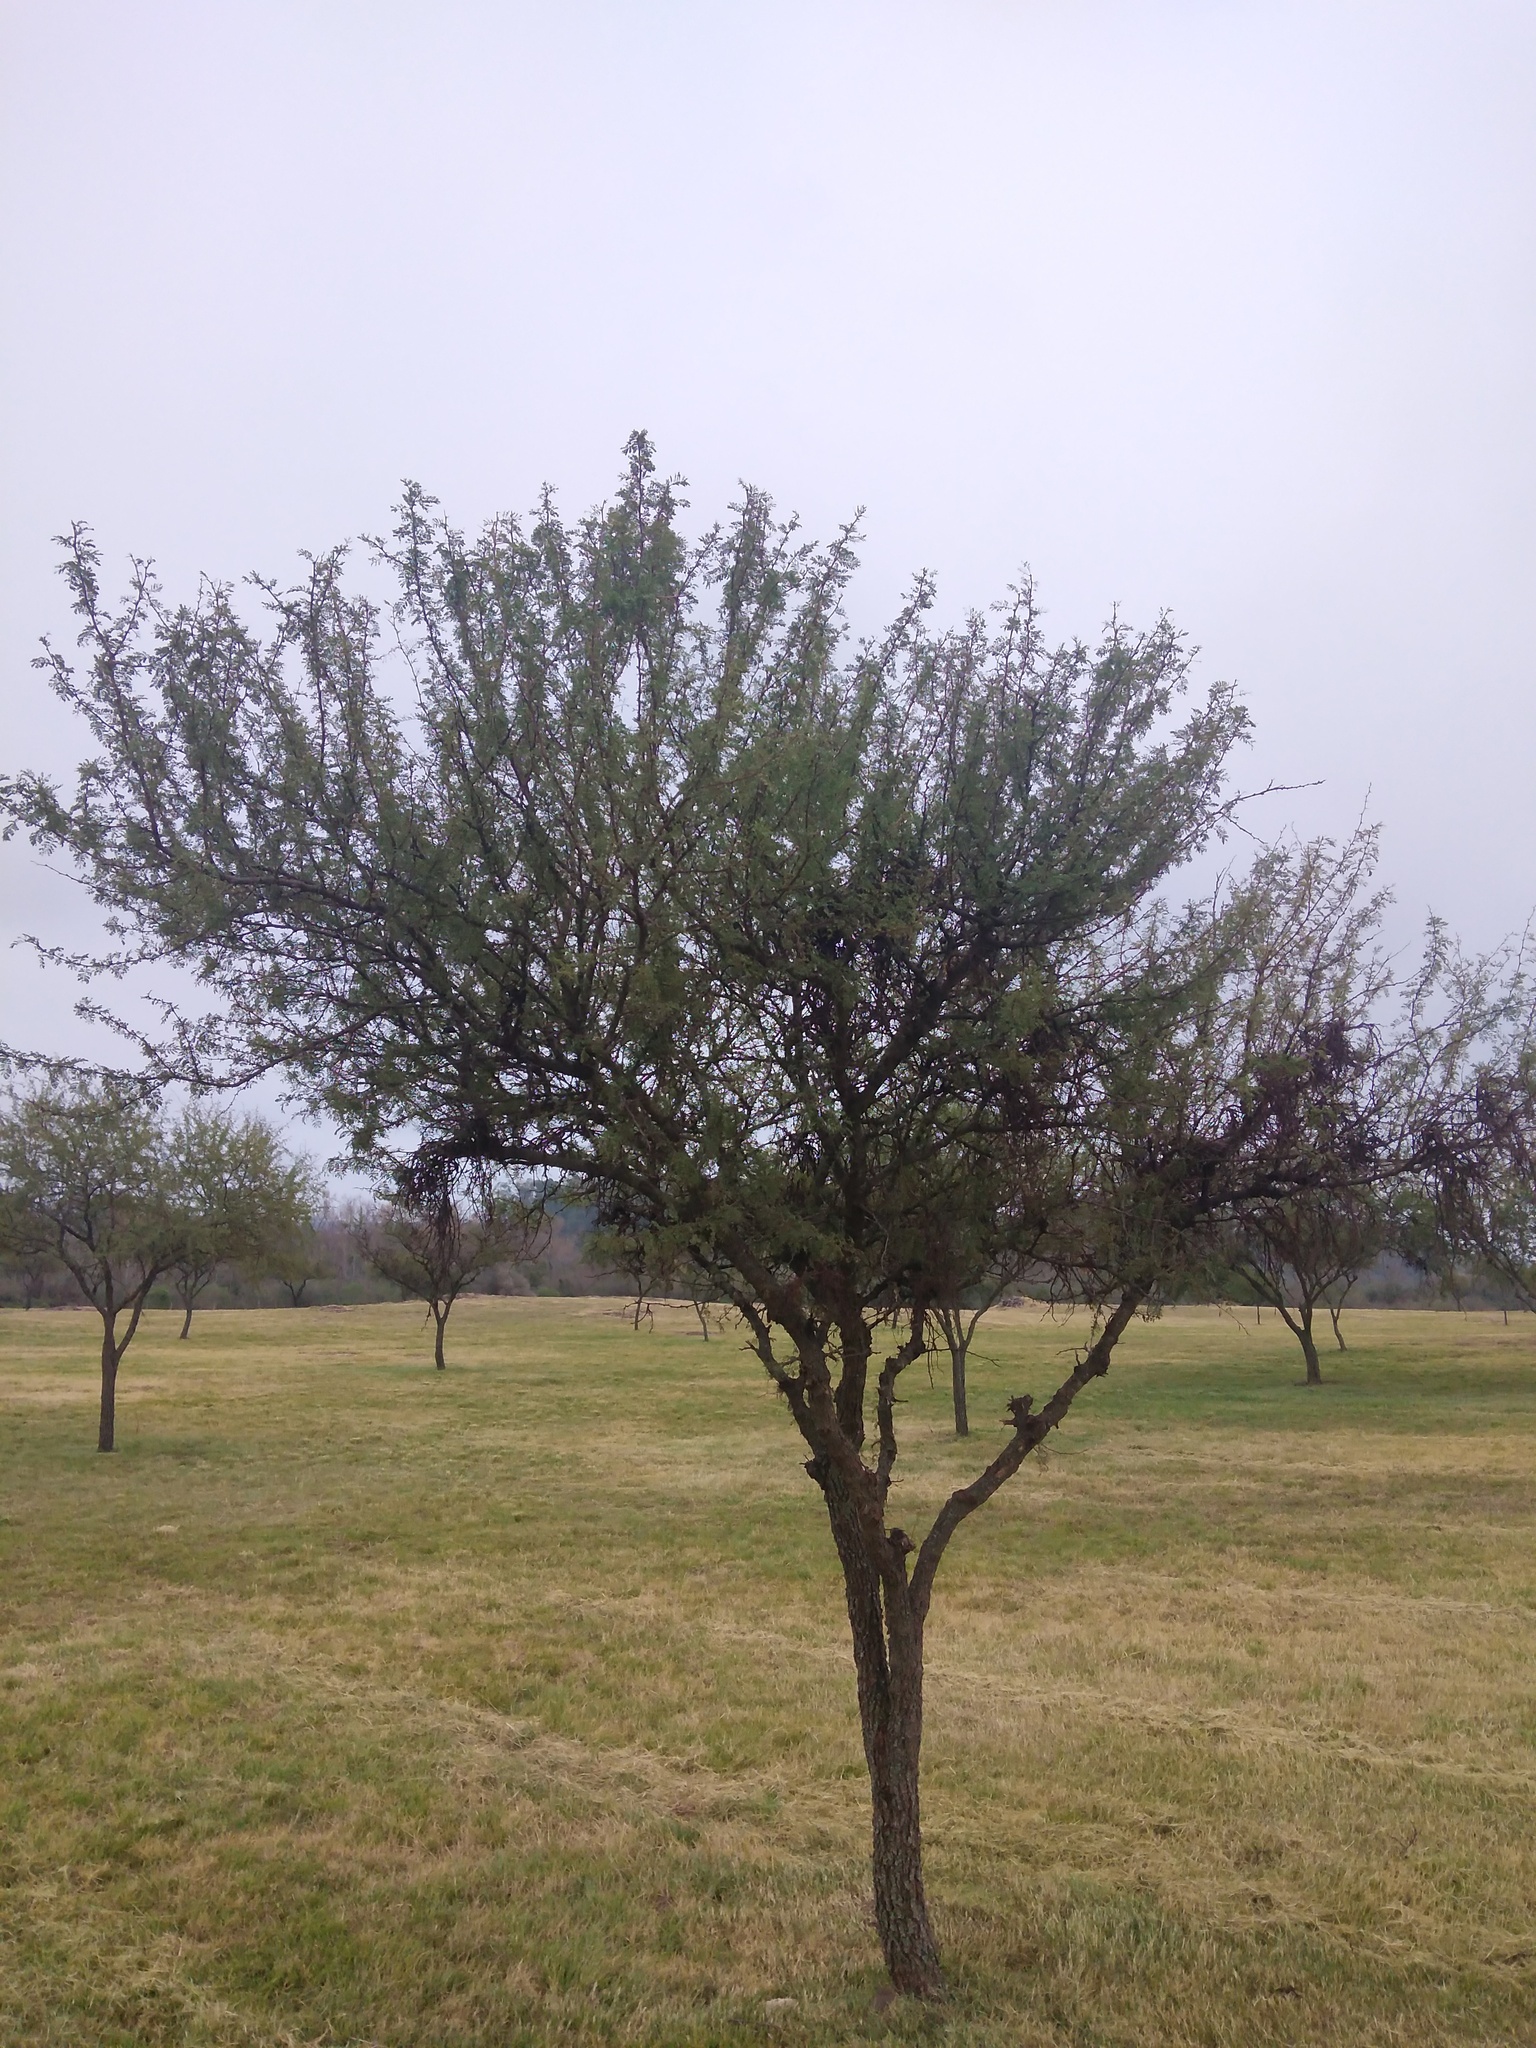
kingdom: Plantae
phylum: Tracheophyta
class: Magnoliopsida
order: Fabales
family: Fabaceae
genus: Vachellia
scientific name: Vachellia caven
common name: Roman cassie
